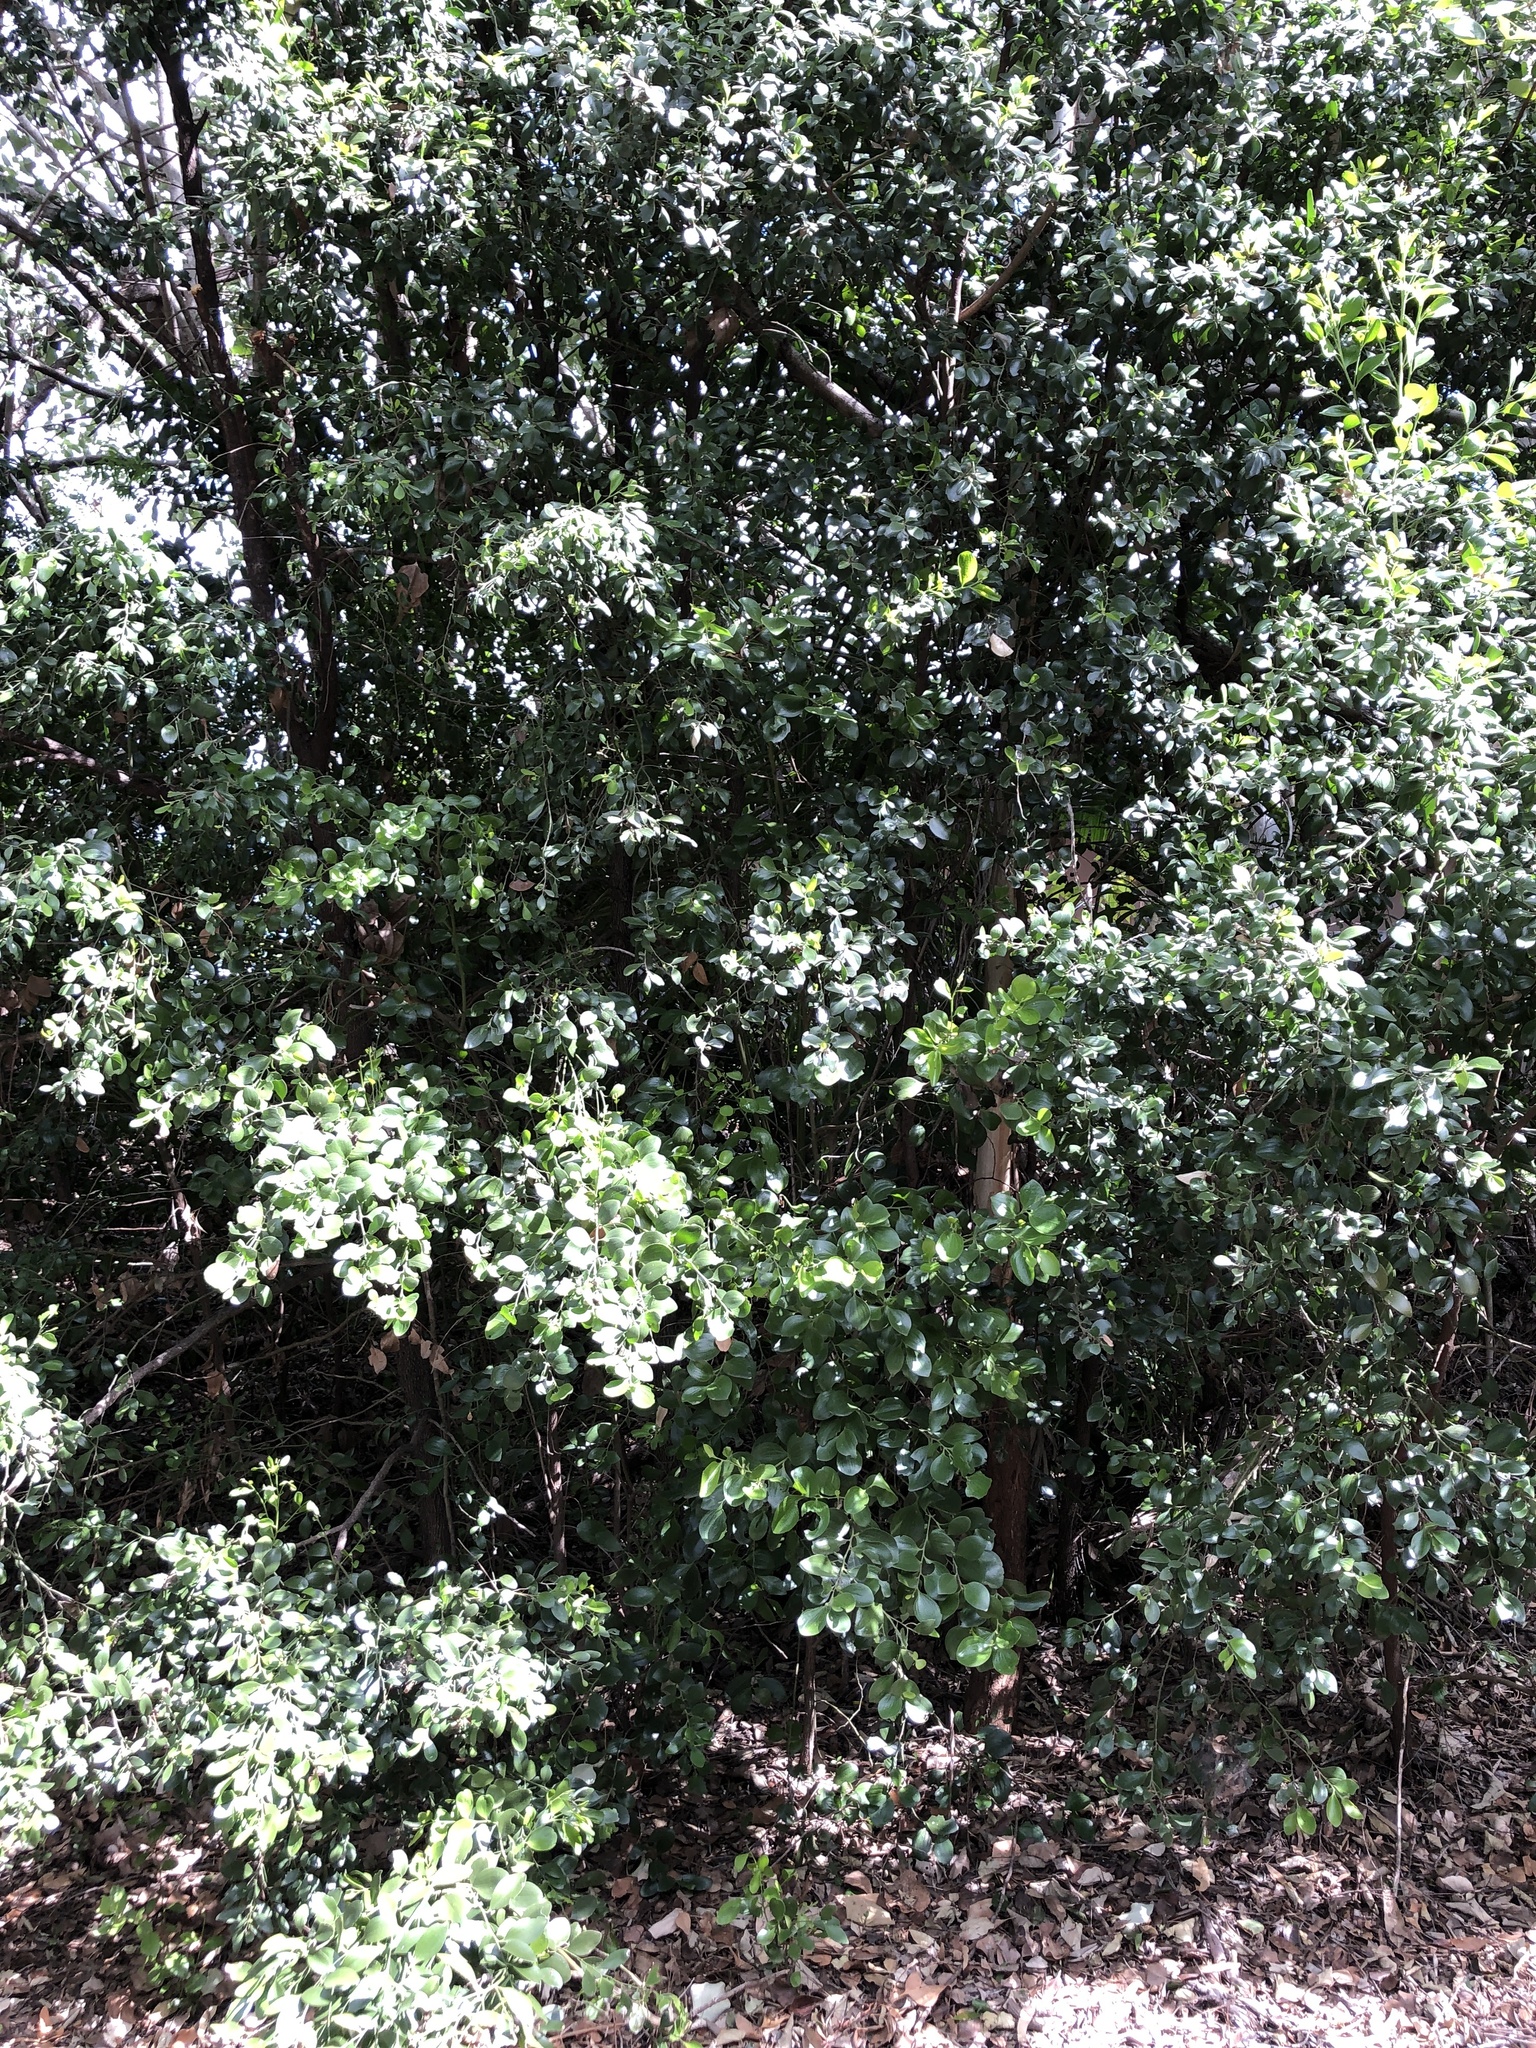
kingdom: Plantae
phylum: Tracheophyta
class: Magnoliopsida
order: Santalales
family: Santalaceae
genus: Exocarpos
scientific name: Exocarpos latifolius
